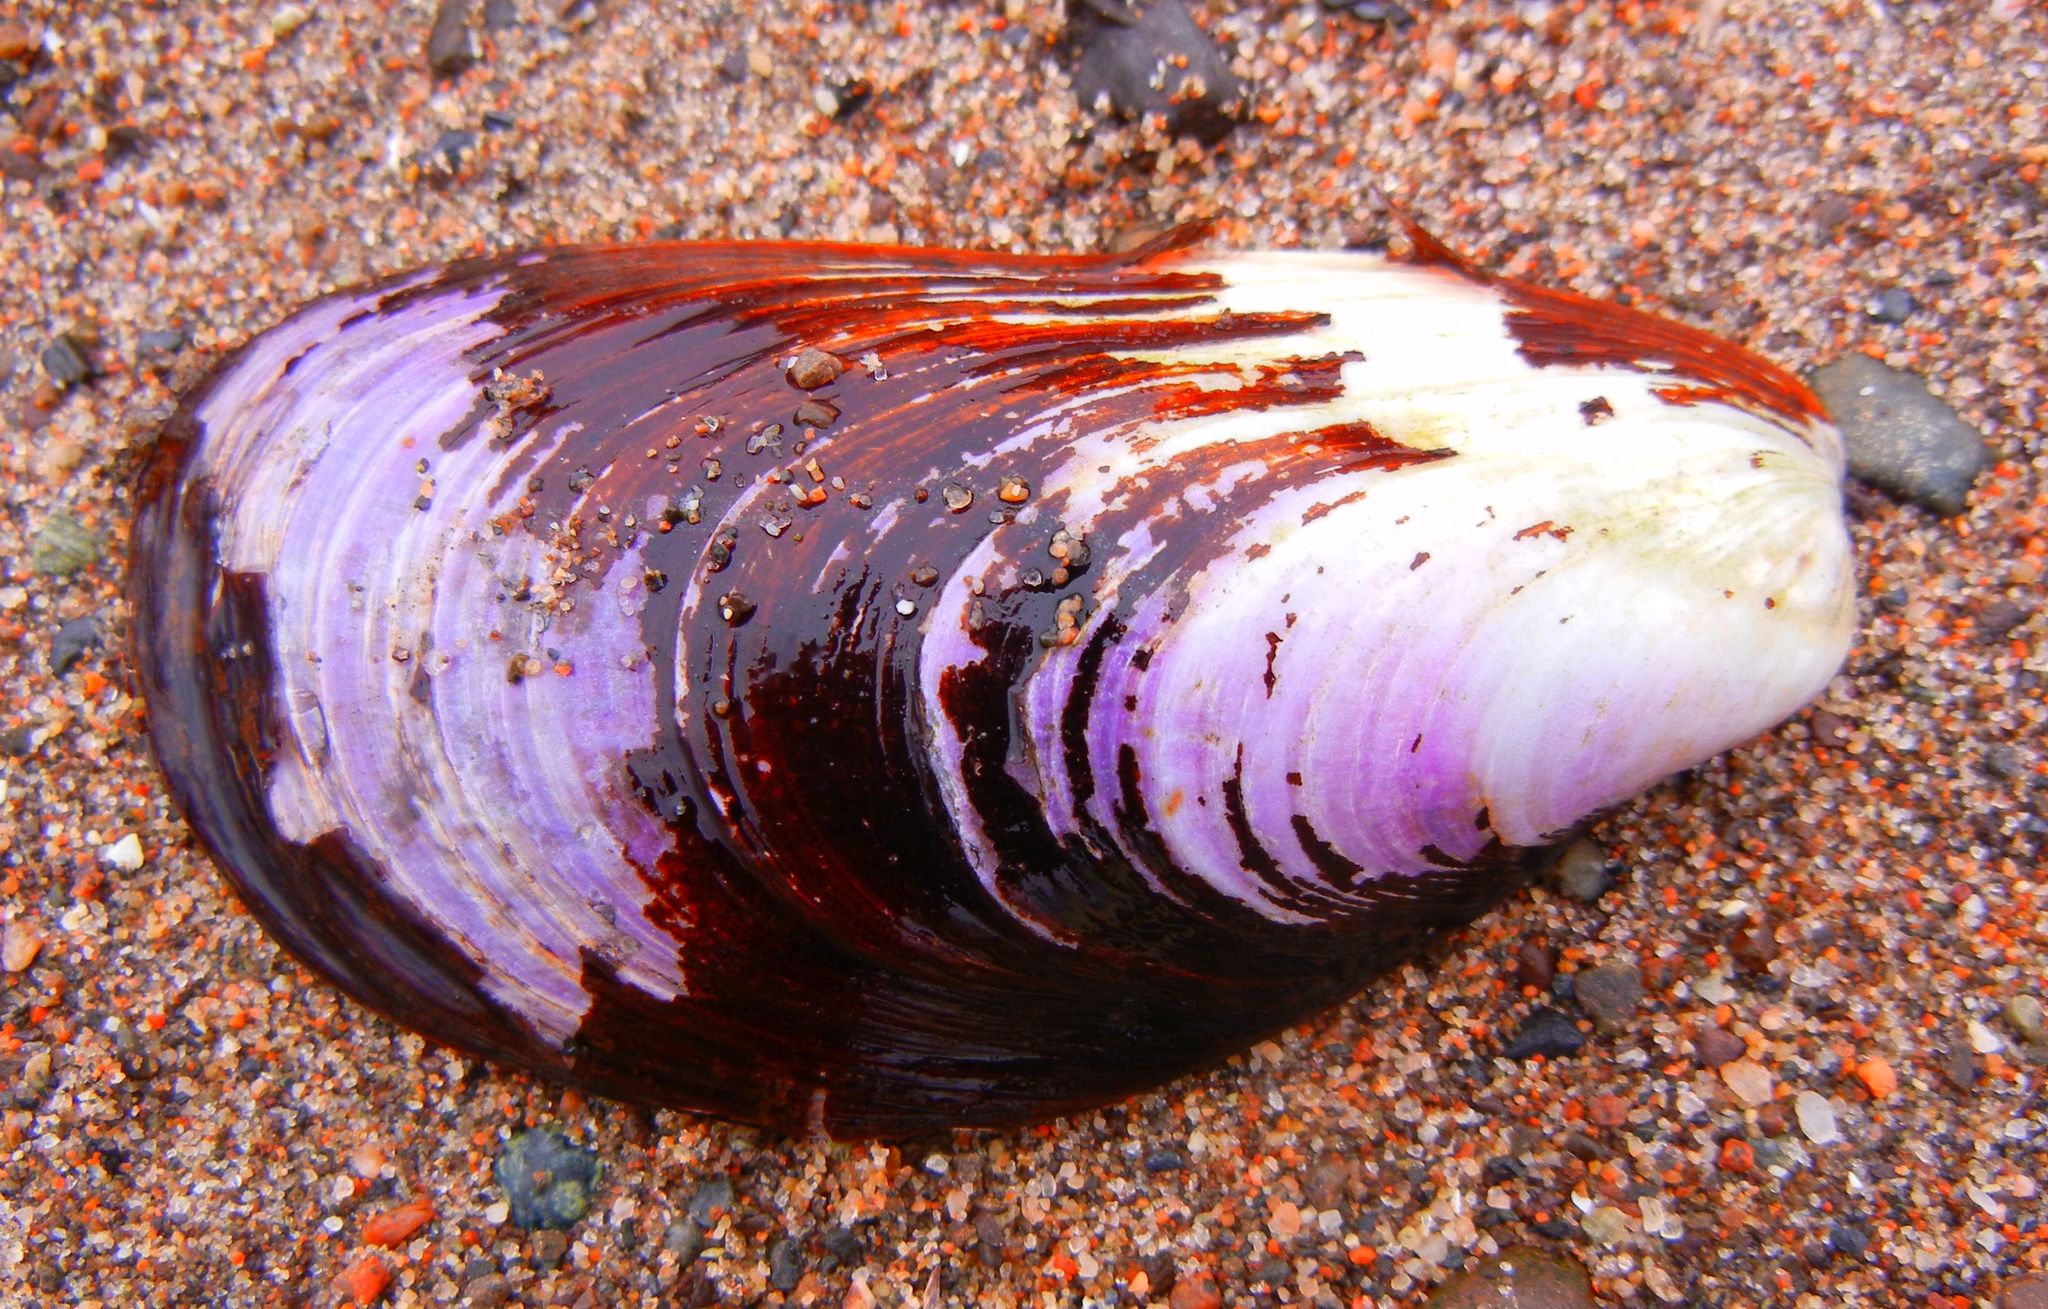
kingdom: Animalia
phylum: Mollusca
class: Bivalvia
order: Mytilida
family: Mytilidae
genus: Modiolus
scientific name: Modiolus modiolus
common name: Horse-mussel
